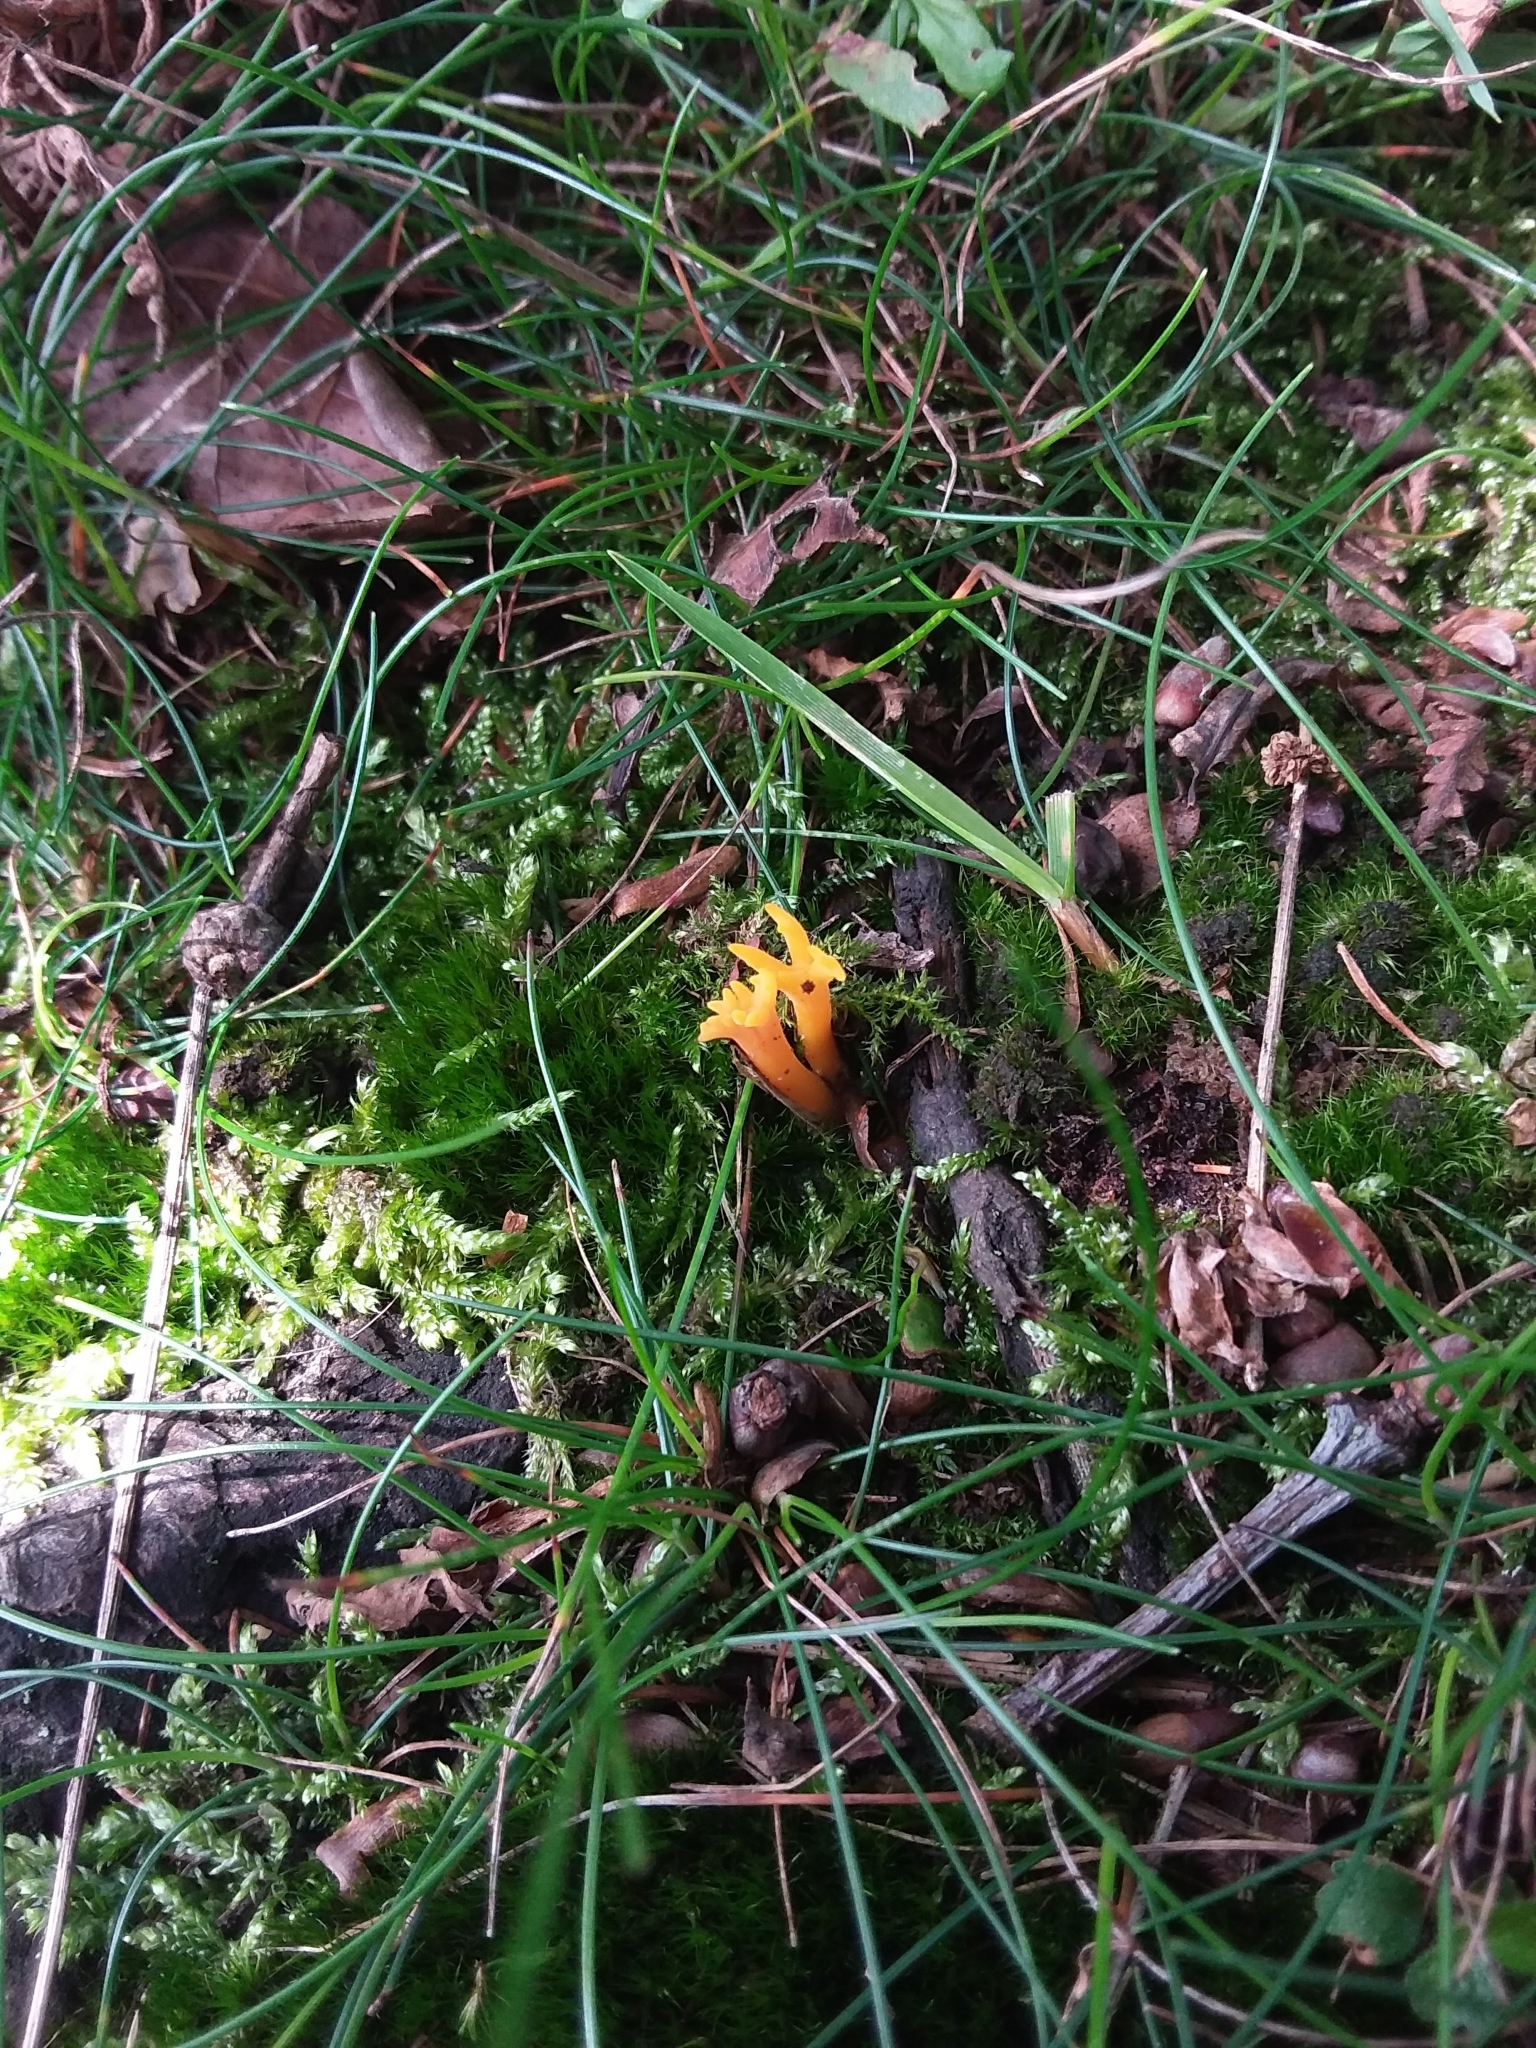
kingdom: Fungi
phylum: Basidiomycota
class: Dacrymycetes
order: Dacrymycetales
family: Dacrymycetaceae
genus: Calocera
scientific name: Calocera viscosa
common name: Yellow stagshorn
